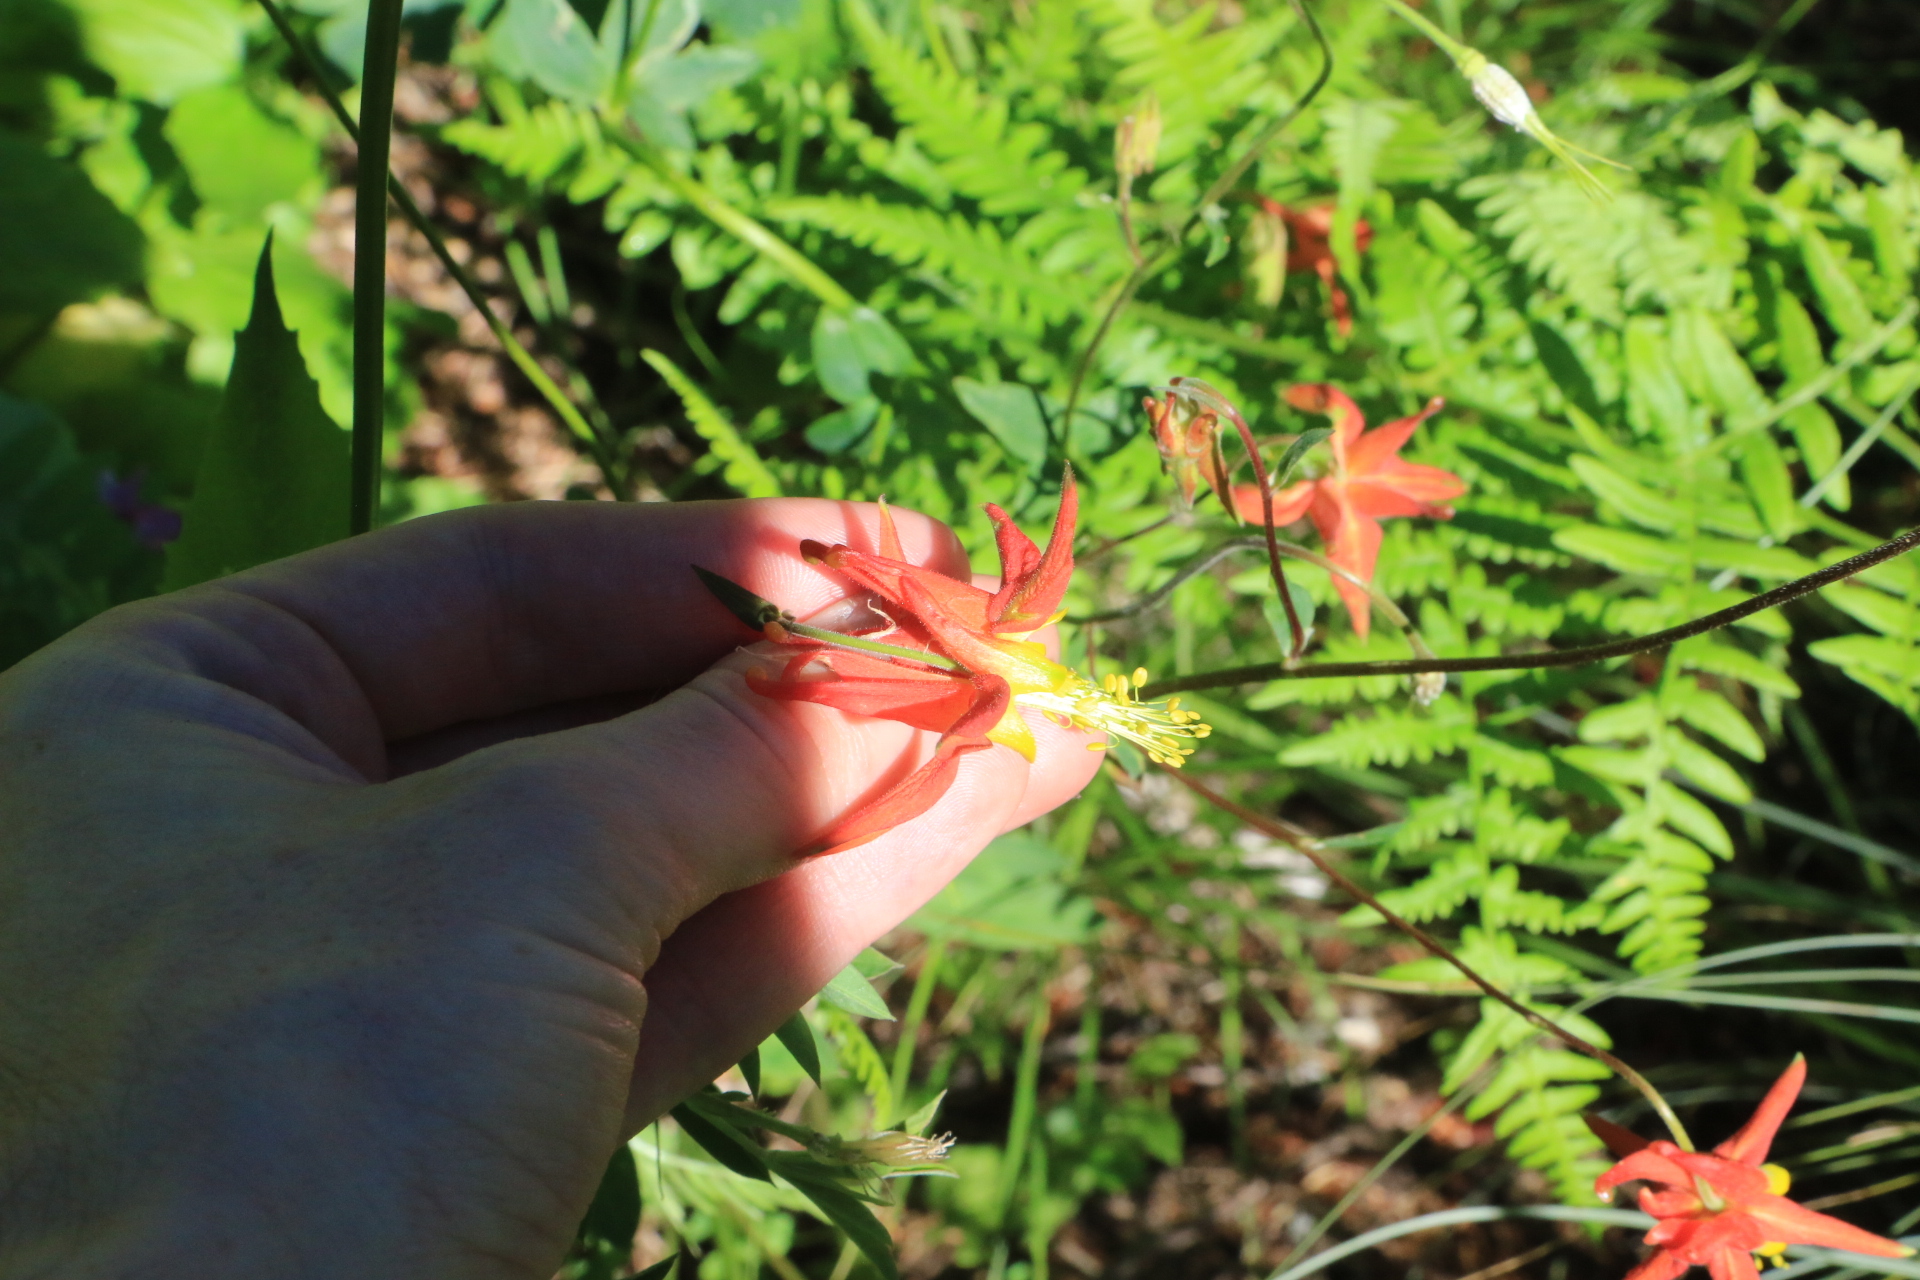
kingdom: Plantae
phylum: Tracheophyta
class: Magnoliopsida
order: Ranunculales
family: Ranunculaceae
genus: Aquilegia
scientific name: Aquilegia formosa
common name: Sitka columbine
